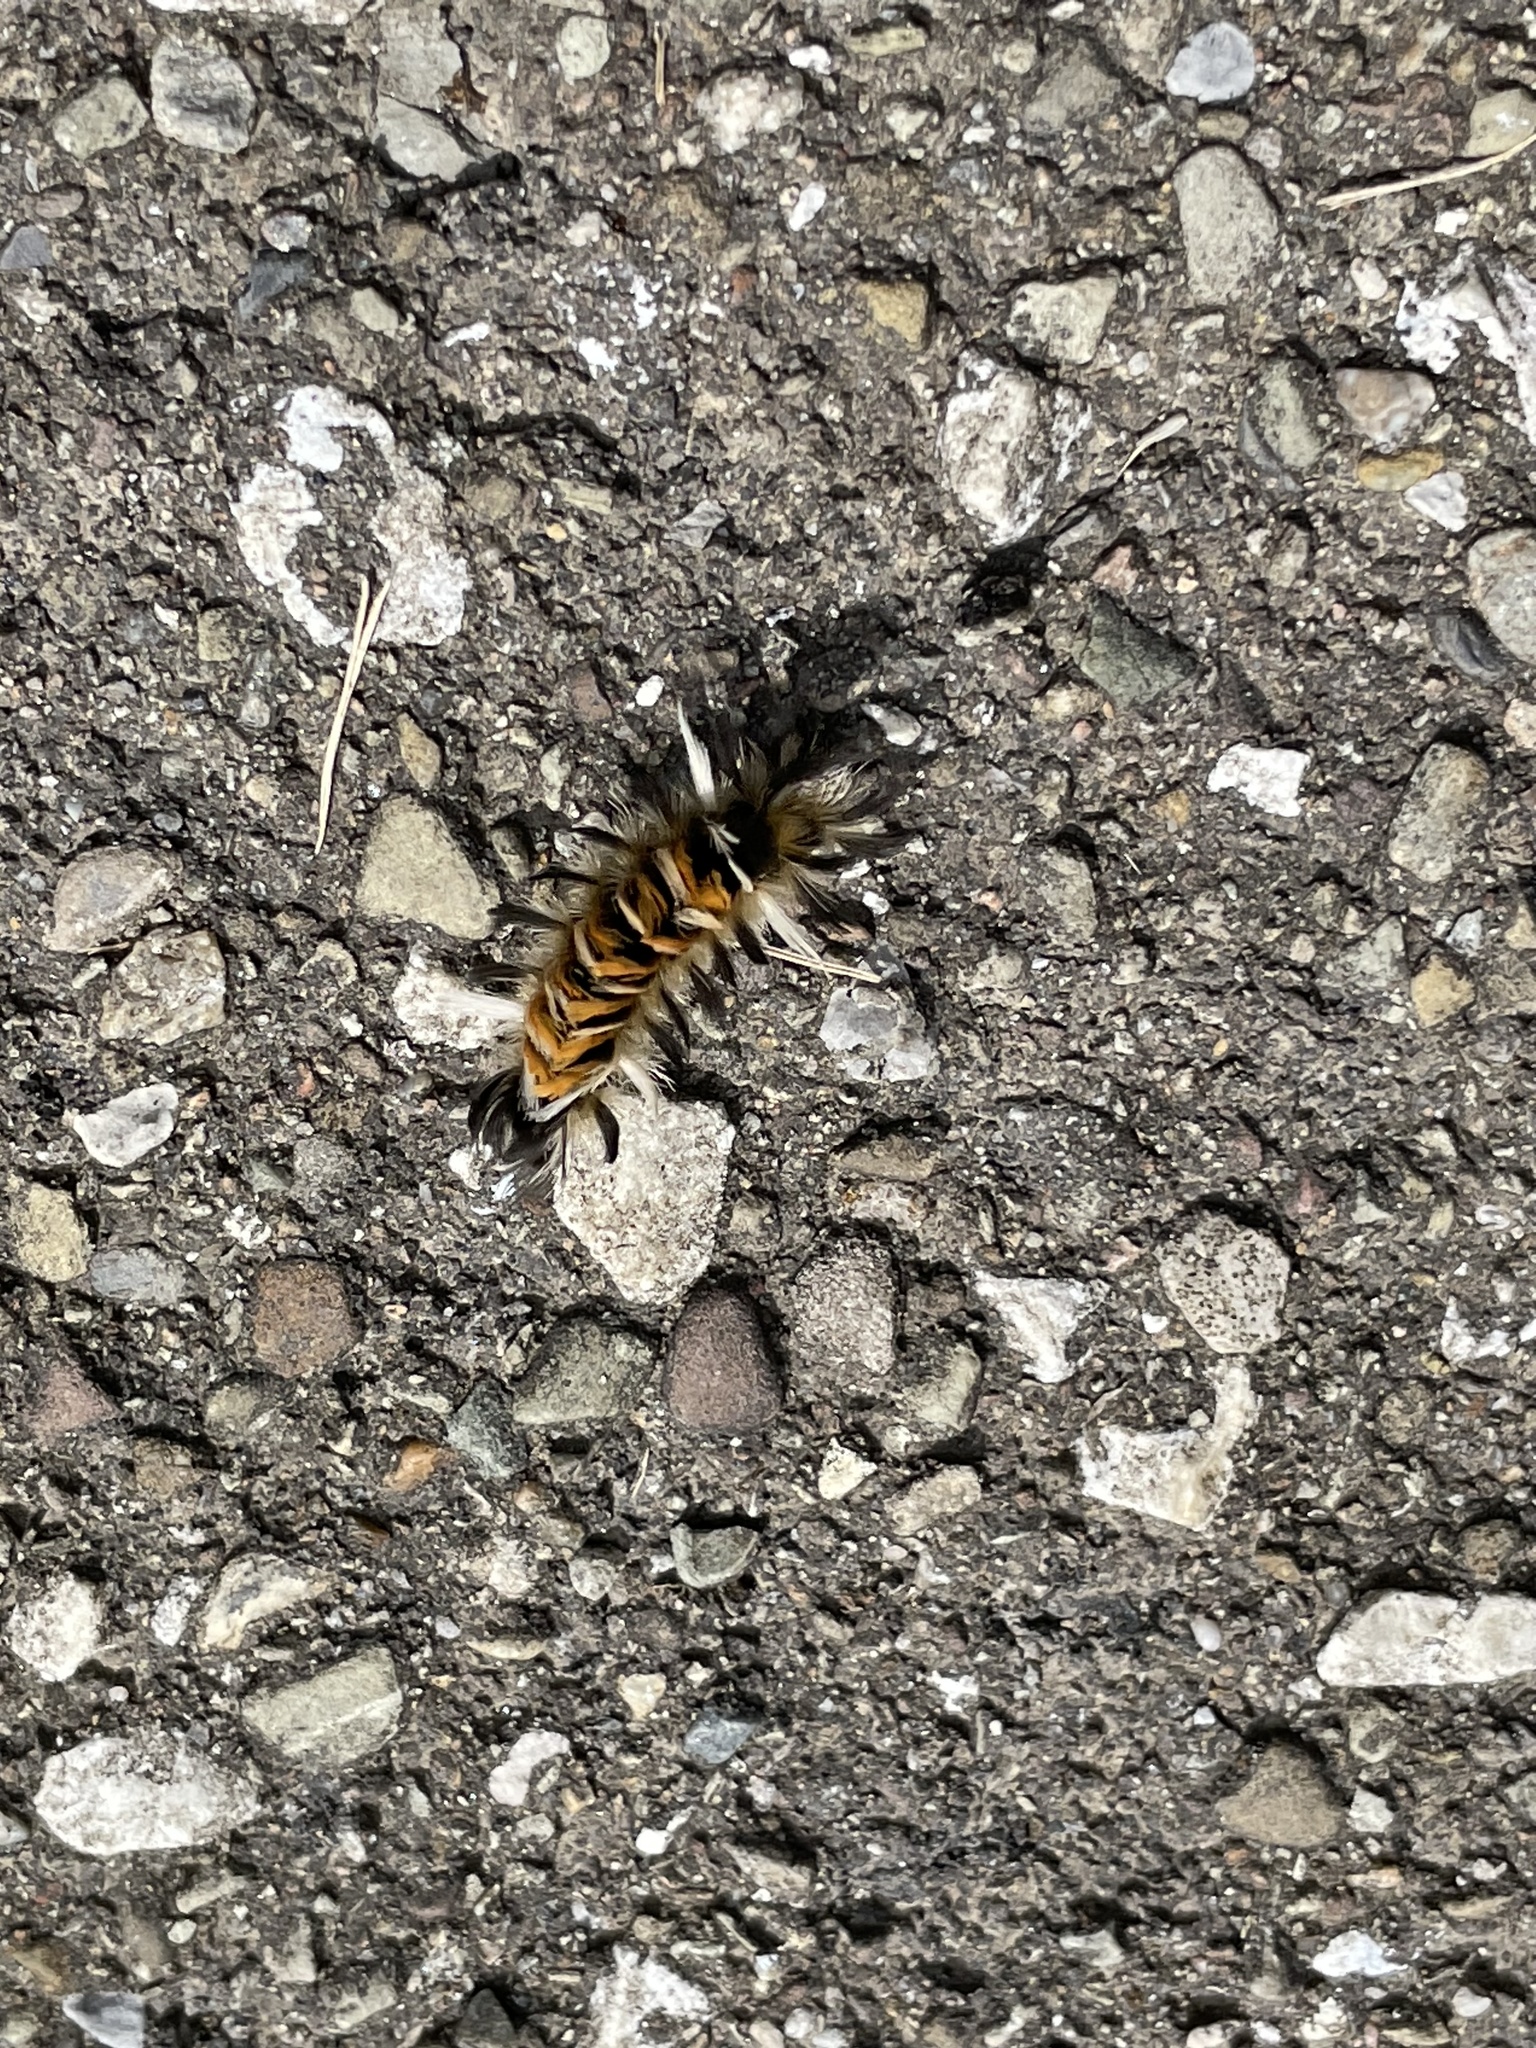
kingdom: Animalia
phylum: Arthropoda
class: Insecta
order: Lepidoptera
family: Erebidae
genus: Euchaetes
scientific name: Euchaetes egle
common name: Milkweed tussock moth
